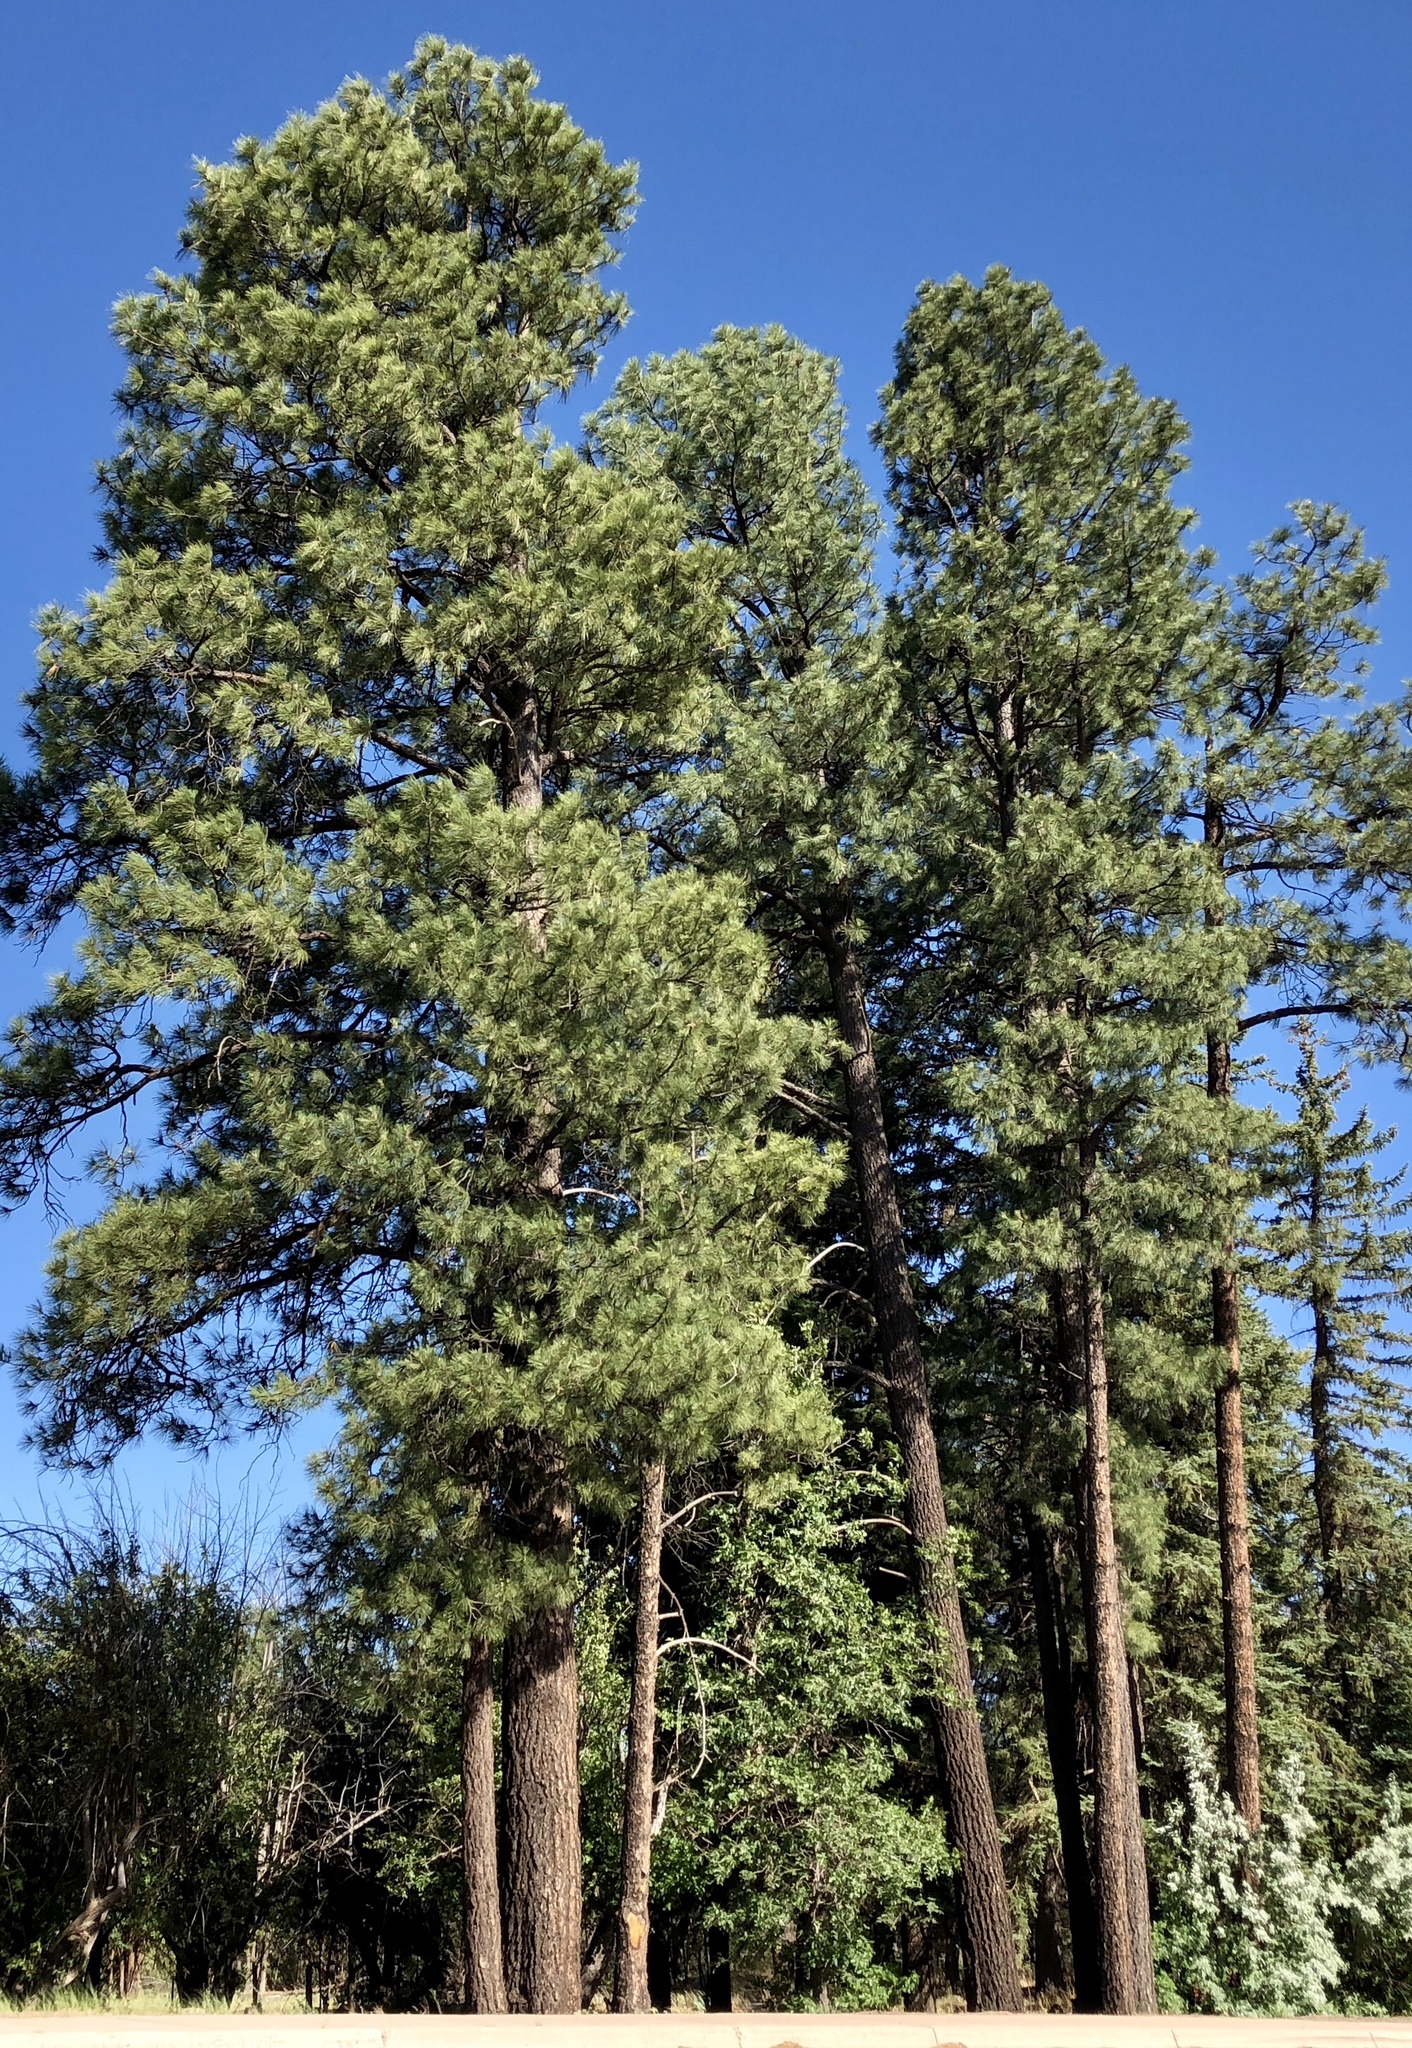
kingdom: Plantae
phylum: Tracheophyta
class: Pinopsida
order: Pinales
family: Pinaceae
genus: Pinus
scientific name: Pinus ponderosa
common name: Western yellow-pine
